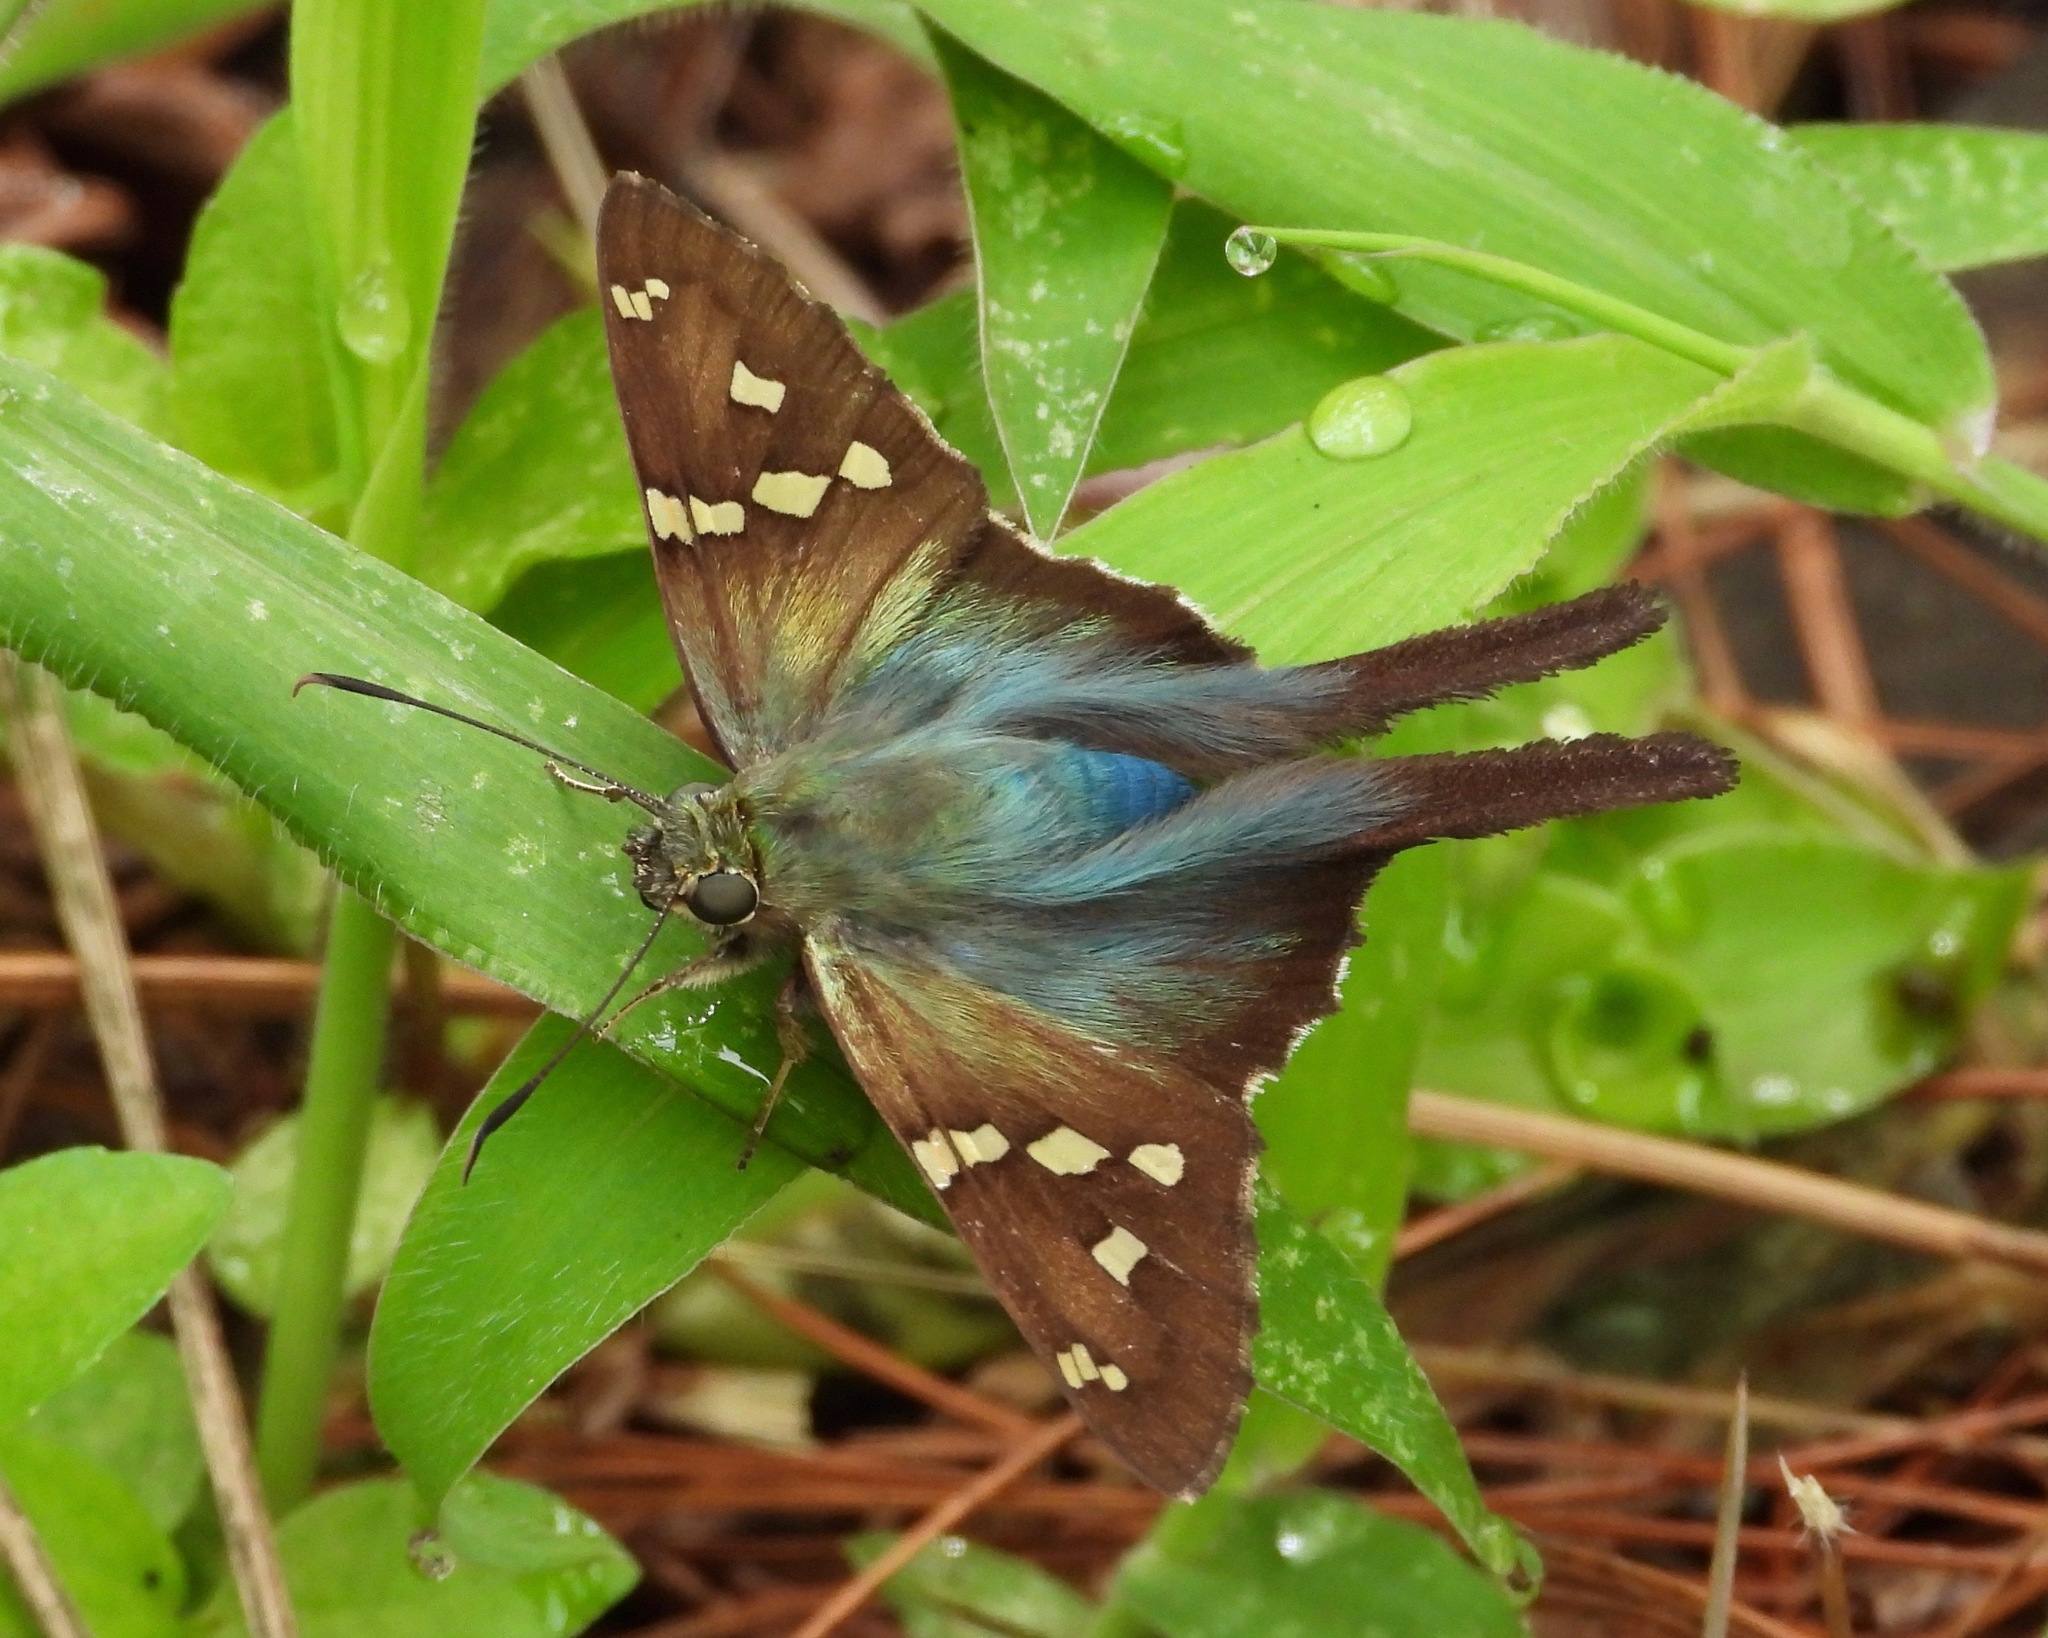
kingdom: Animalia
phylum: Arthropoda
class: Insecta
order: Lepidoptera
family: Hesperiidae
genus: Urbanus
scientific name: Urbanus proteus
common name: Long-tailed skipper
